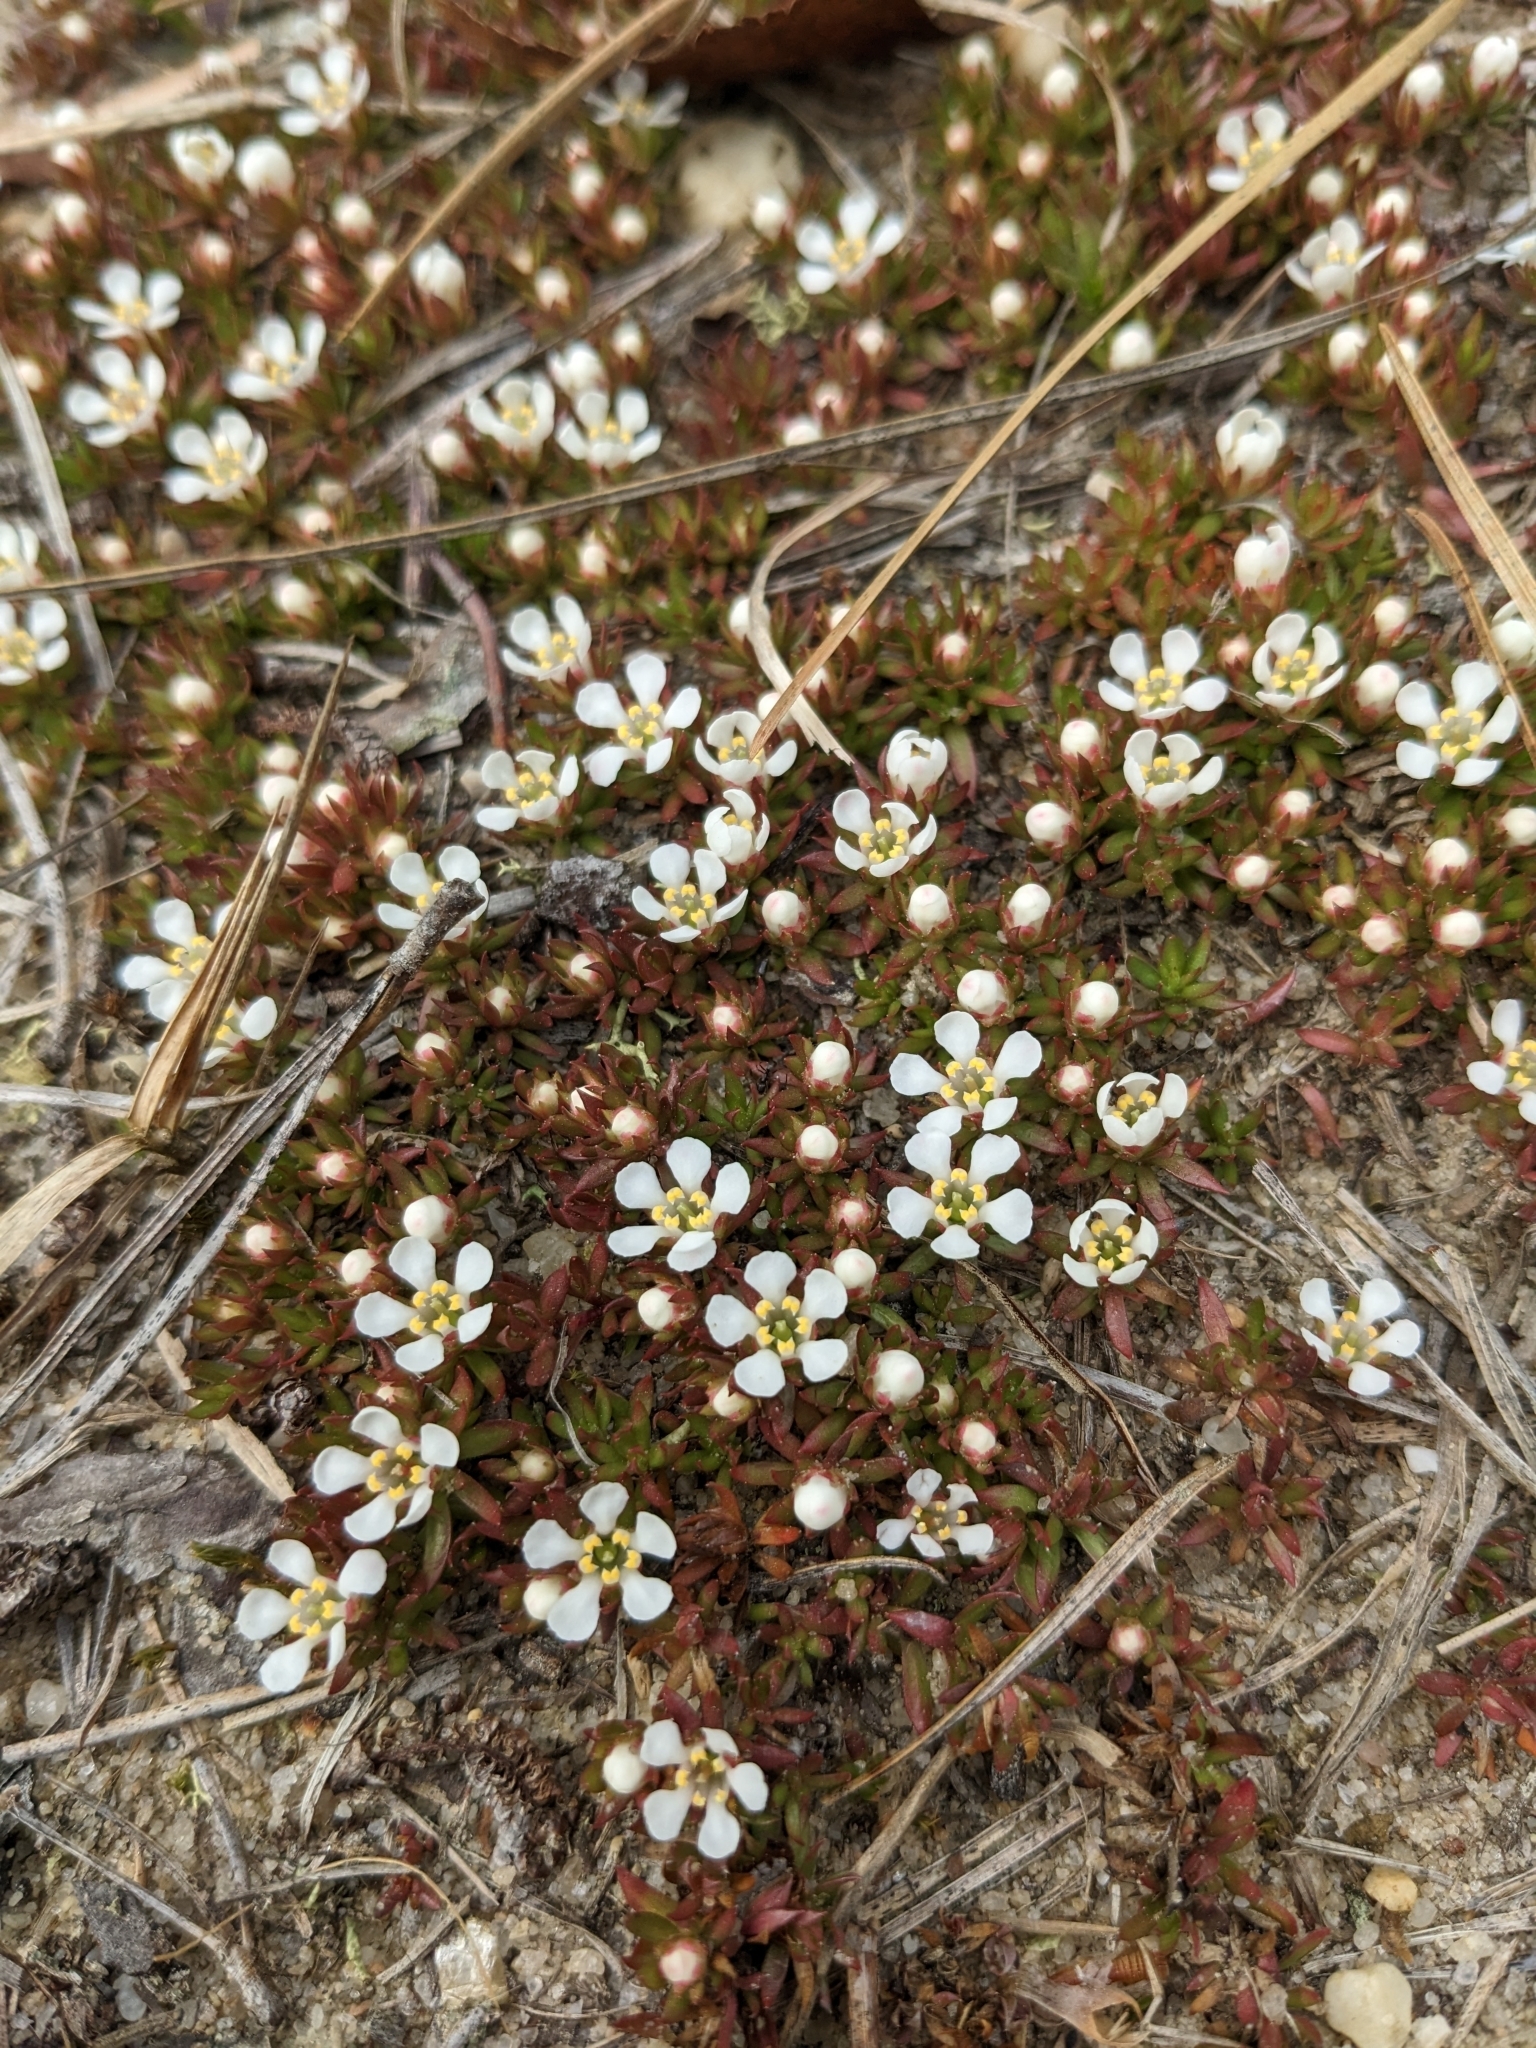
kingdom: Plantae
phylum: Tracheophyta
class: Magnoliopsida
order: Ericales
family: Diapensiaceae
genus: Pyxidanthera
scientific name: Pyxidanthera barbulata
